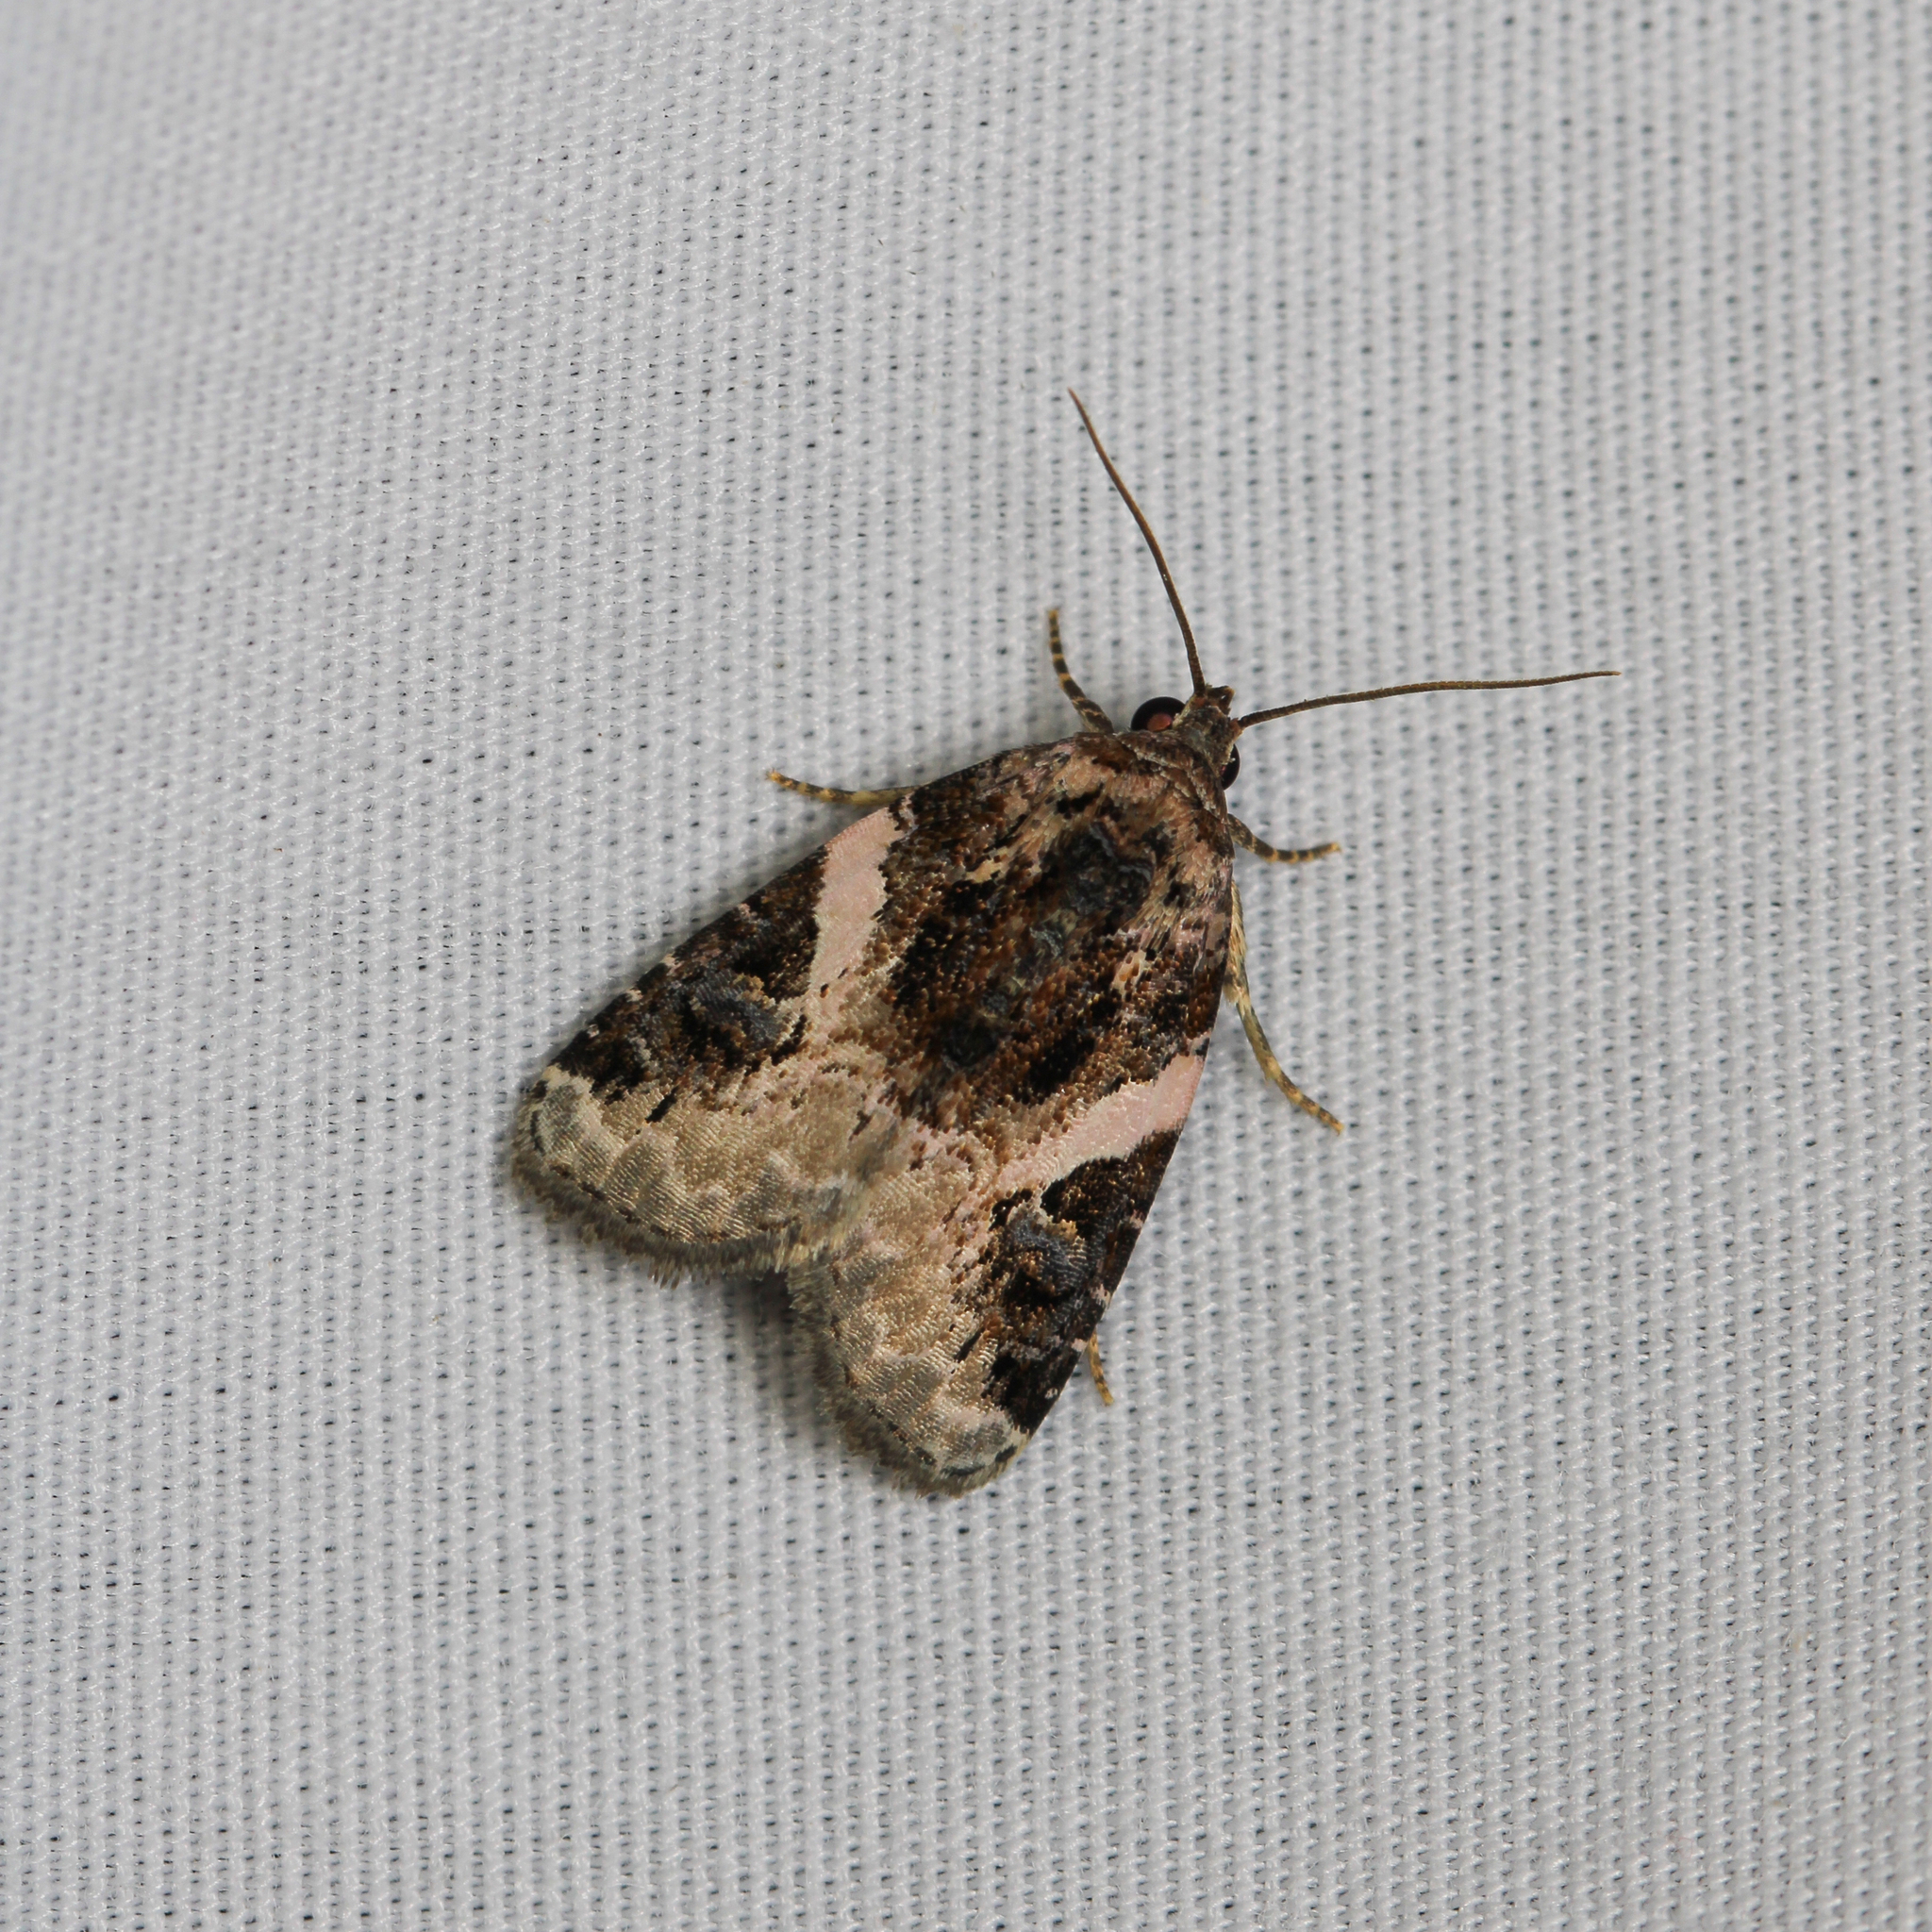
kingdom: Animalia
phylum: Arthropoda
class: Insecta
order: Lepidoptera
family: Noctuidae
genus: Pseudeustrotia
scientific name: Pseudeustrotia carneola
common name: Pink-barred lithacodia moth
